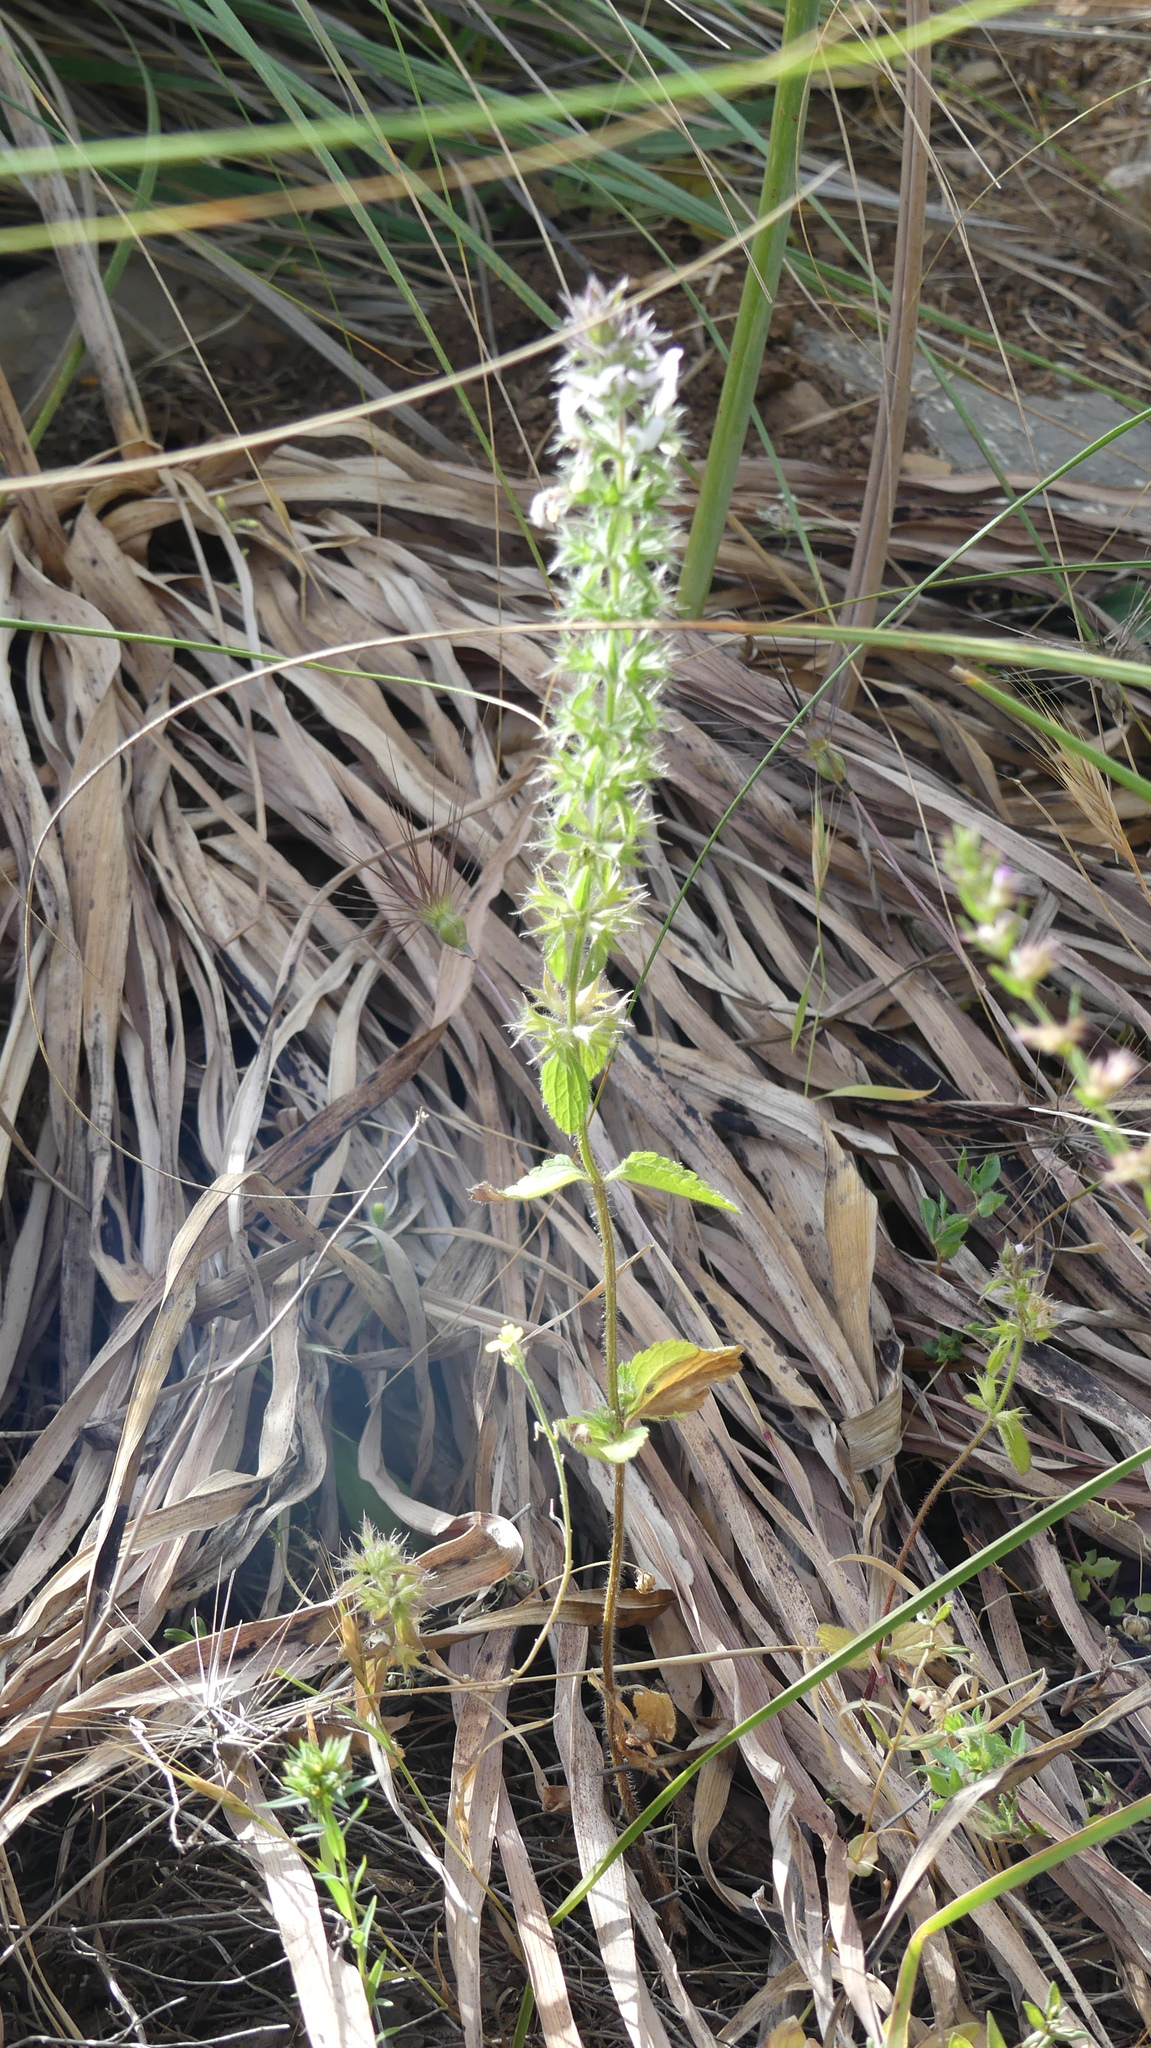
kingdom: Plantae
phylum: Tracheophyta
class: Magnoliopsida
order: Lamiales
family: Lamiaceae
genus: Stachys
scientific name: Stachys ocymastrum
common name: Italian hedgenettle
